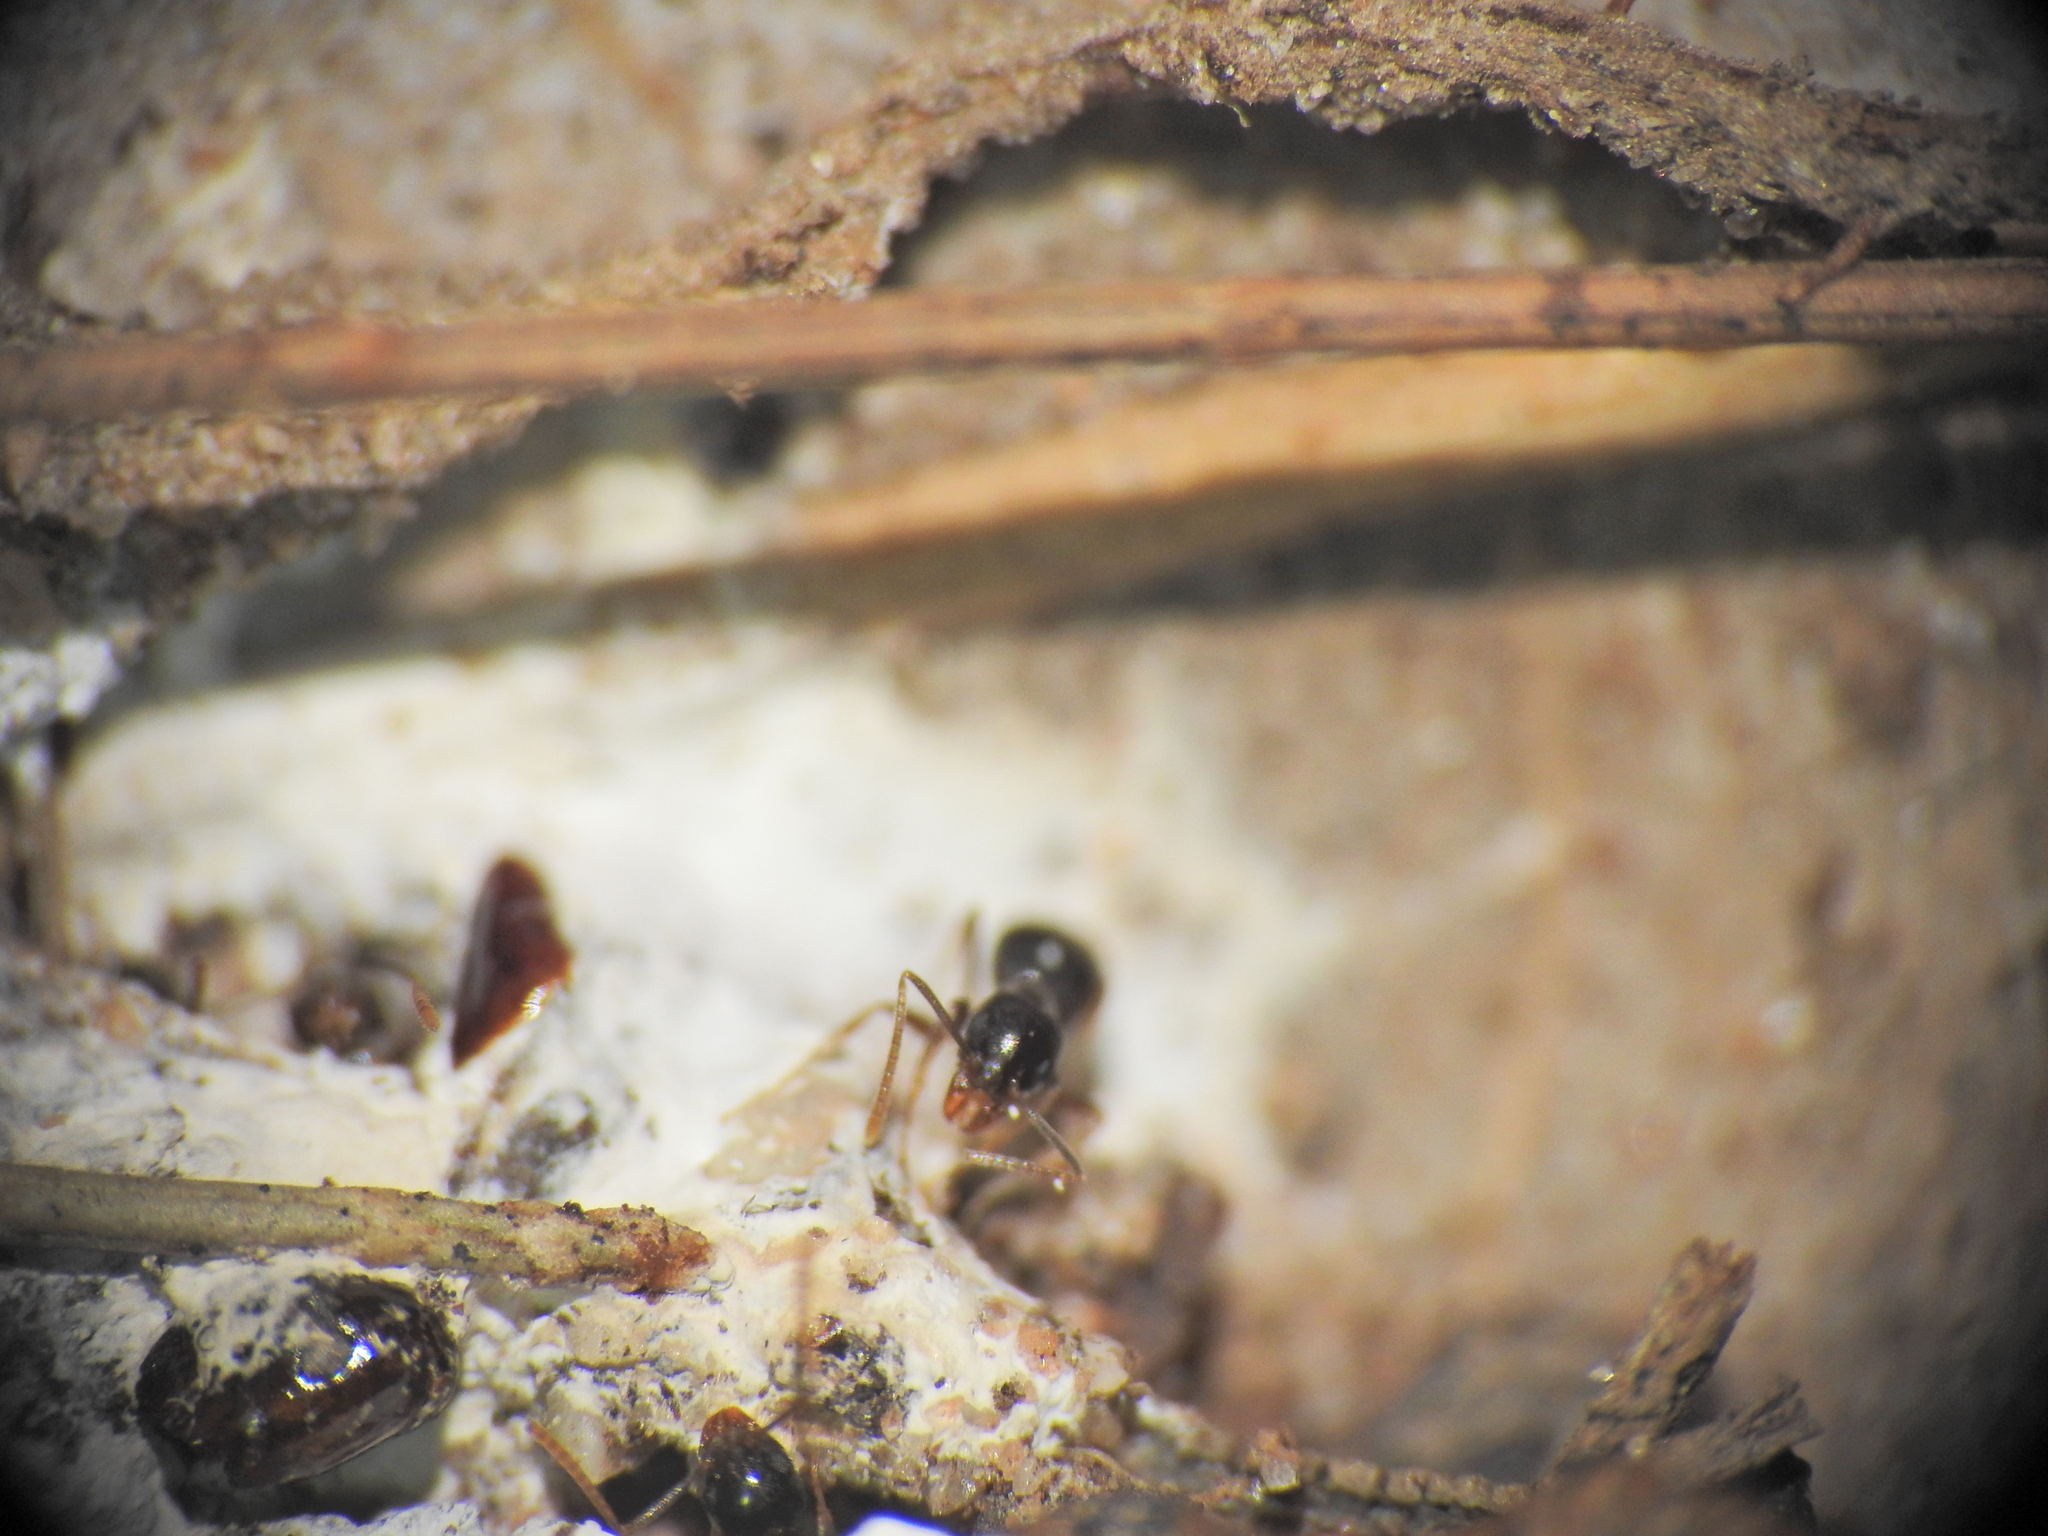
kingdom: Animalia
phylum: Arthropoda
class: Insecta
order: Hymenoptera
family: Formicidae
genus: Technomyrmex
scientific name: Technomyrmex
